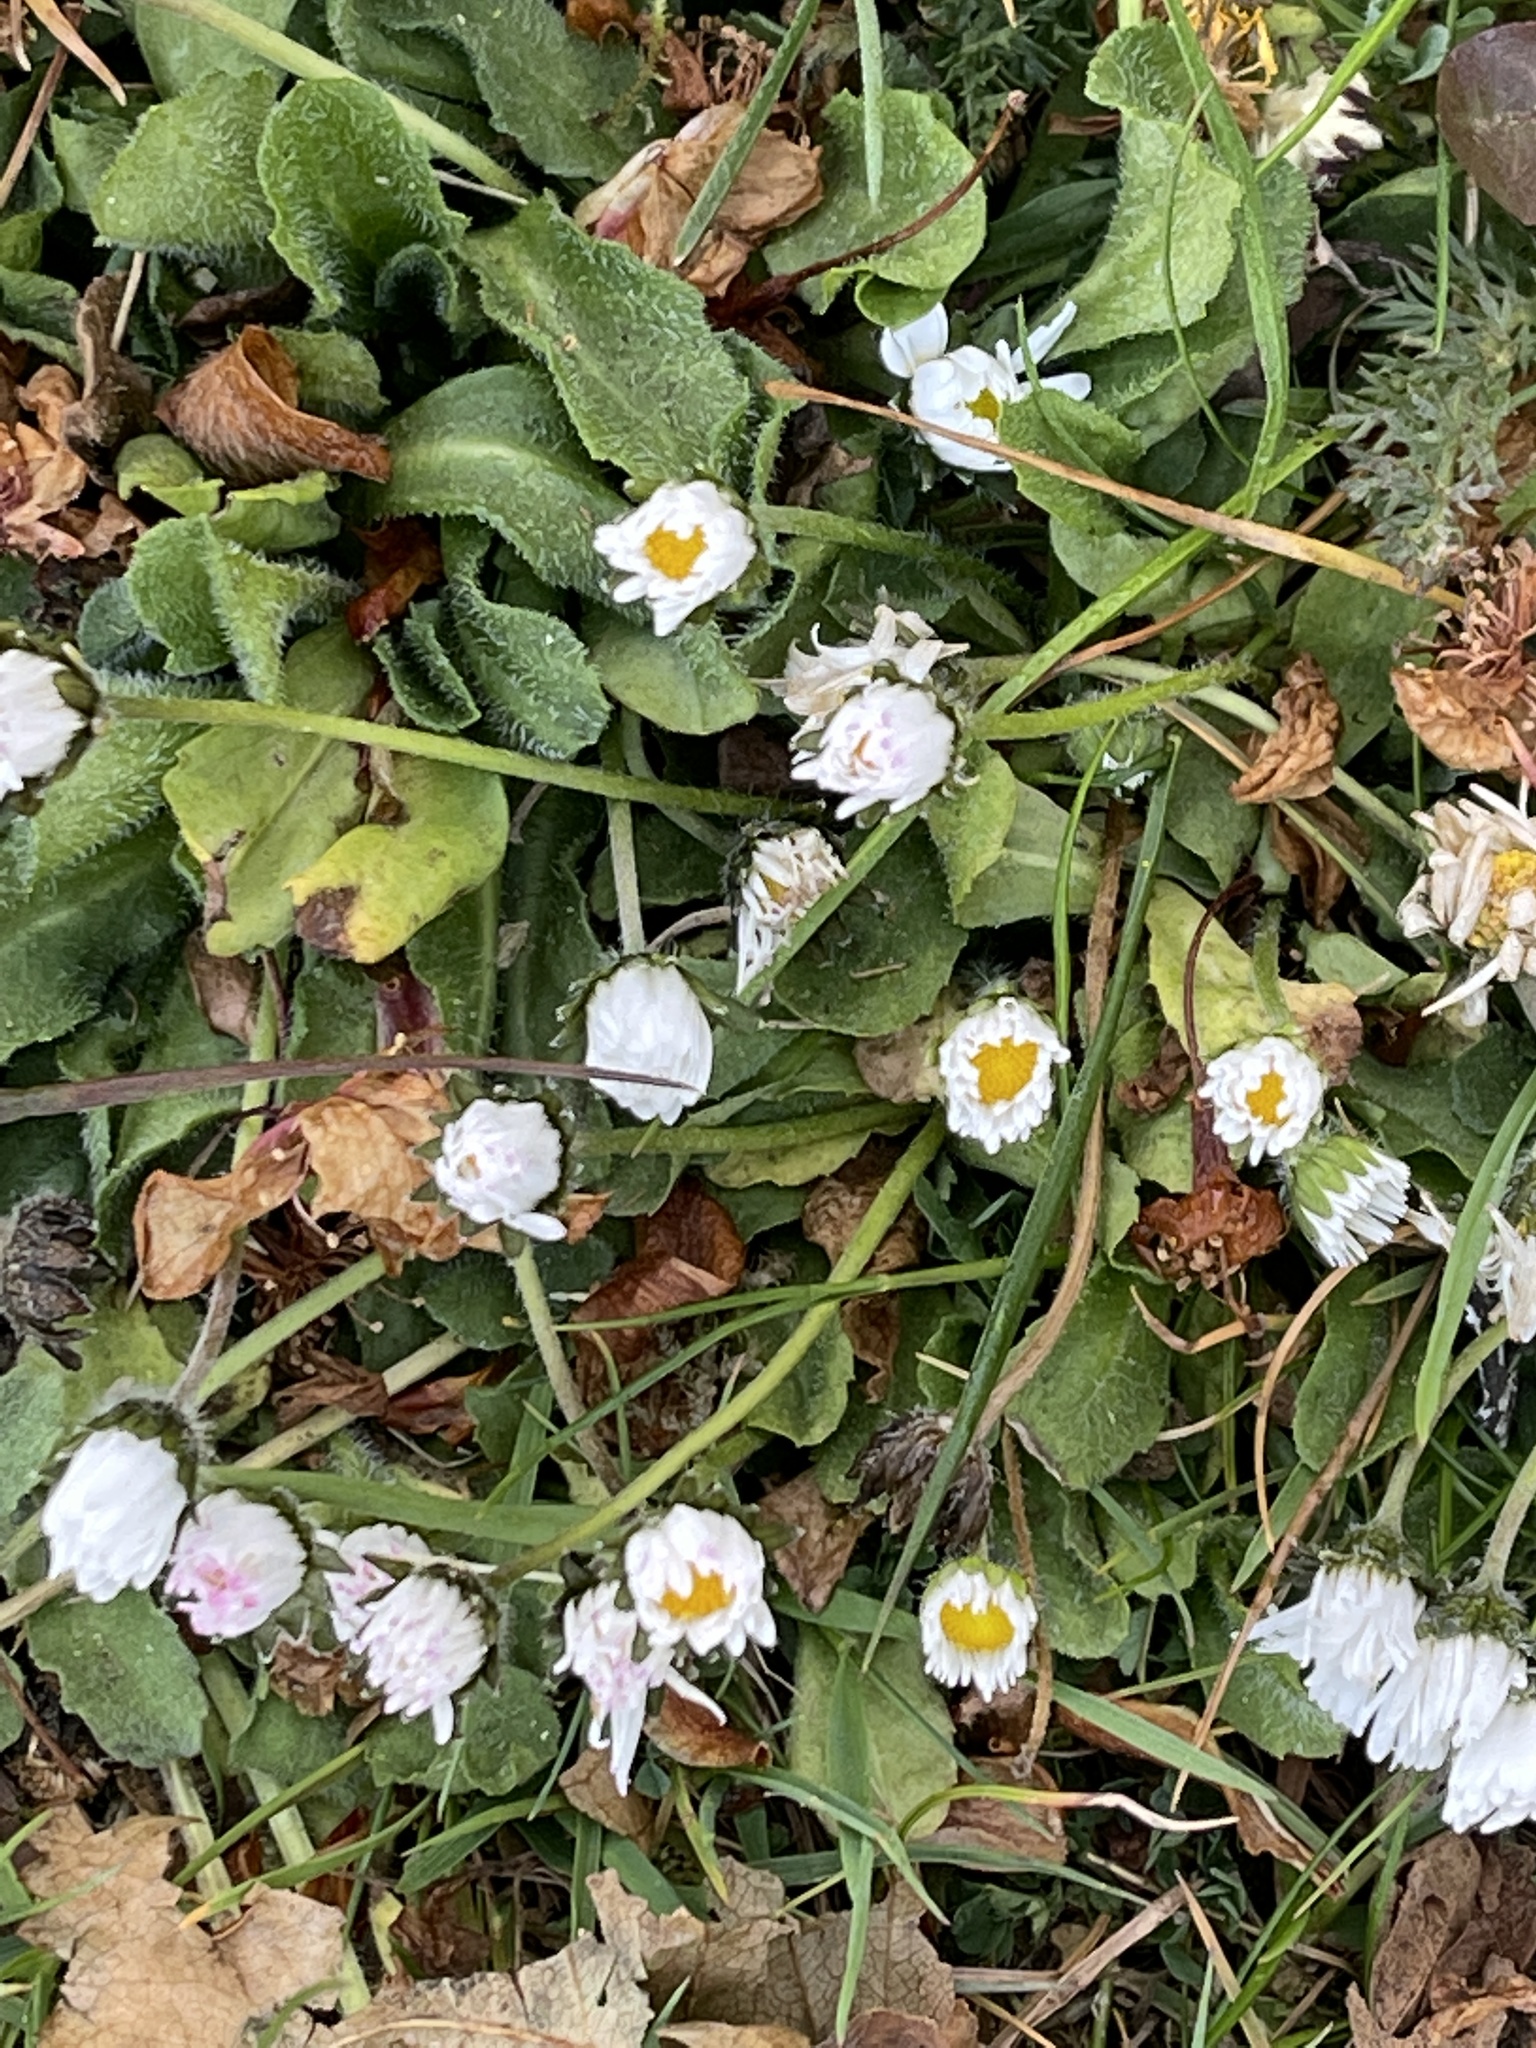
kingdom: Plantae
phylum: Tracheophyta
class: Magnoliopsida
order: Asterales
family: Asteraceae
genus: Bellis
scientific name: Bellis perennis
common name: Lawndaisy
